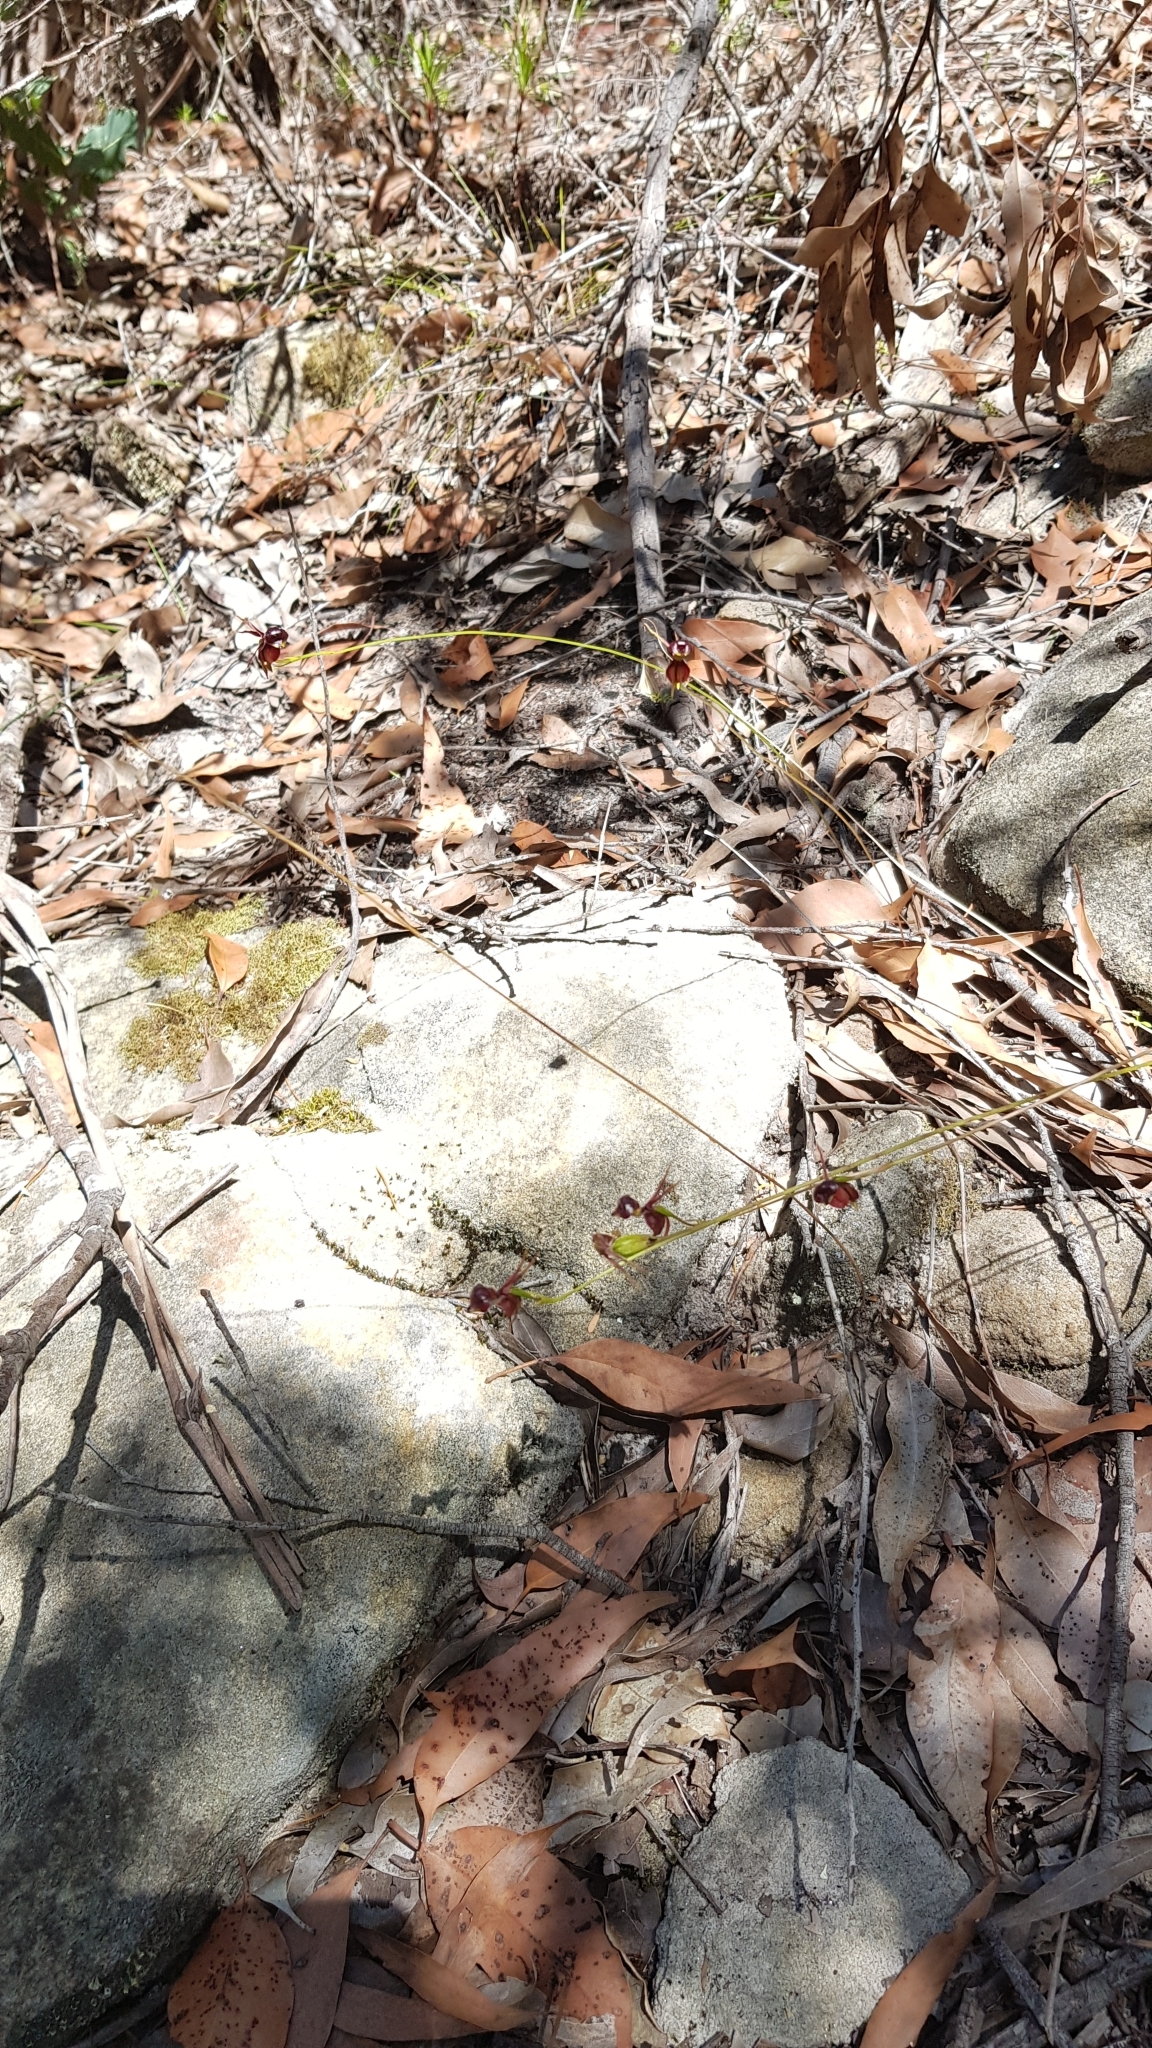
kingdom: Plantae
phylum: Tracheophyta
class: Liliopsida
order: Asparagales
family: Orchidaceae
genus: Caleana
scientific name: Caleana major
